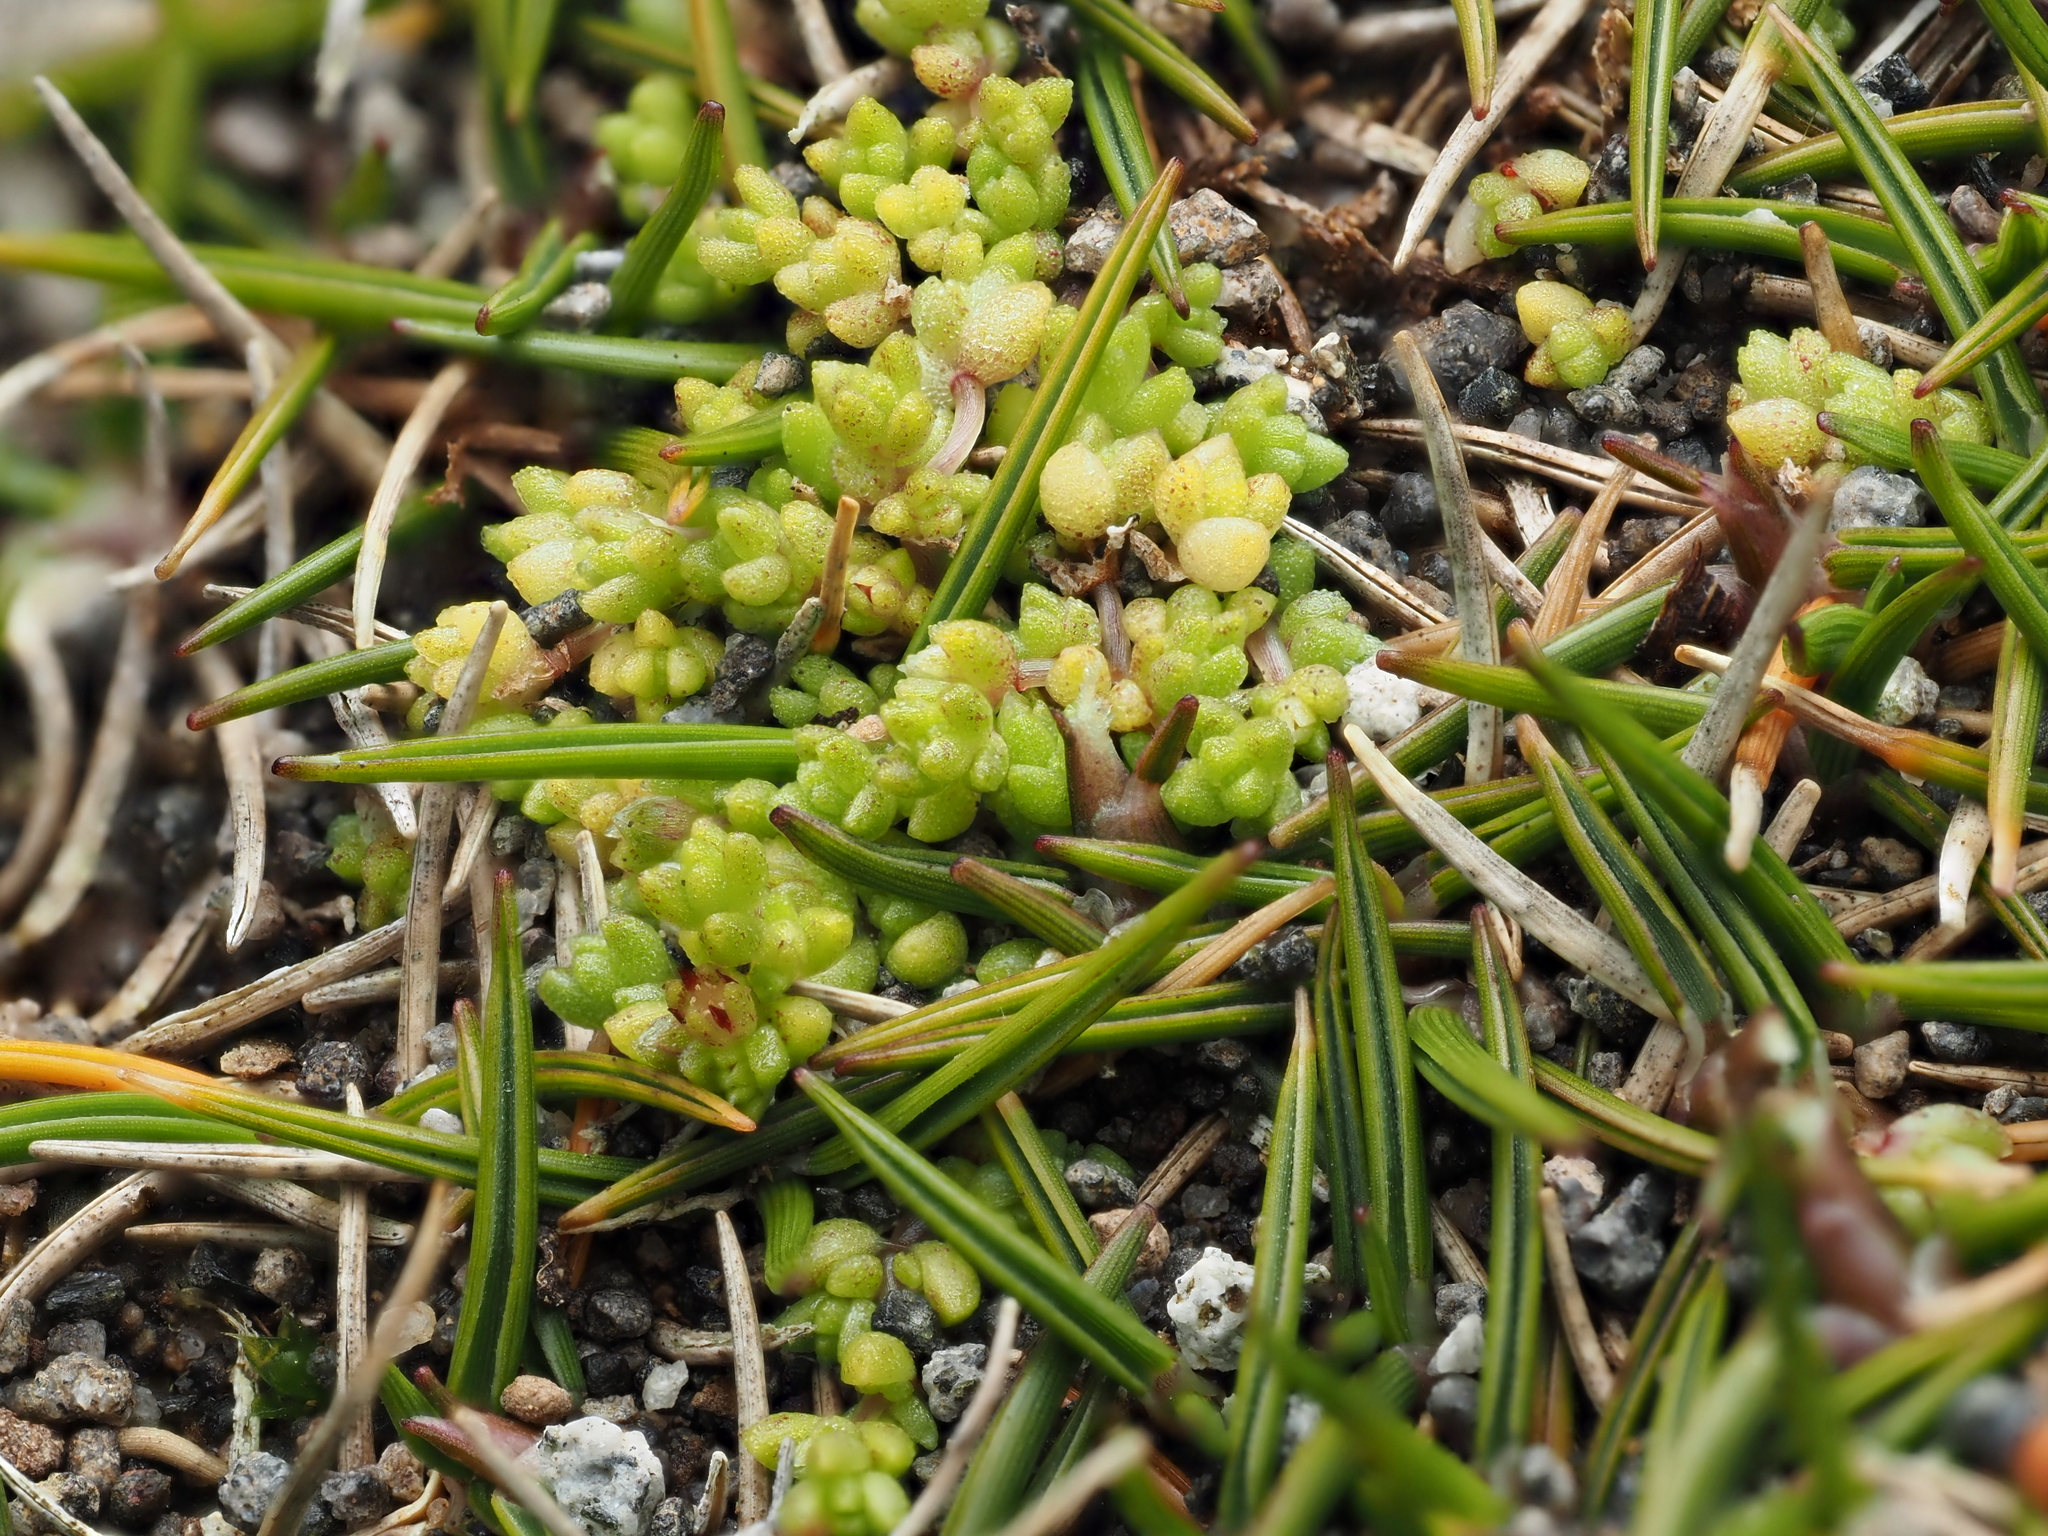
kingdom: Plantae
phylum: Tracheophyta
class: Magnoliopsida
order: Saxifragales
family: Crassulaceae
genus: Crassula
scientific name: Crassula manaia
